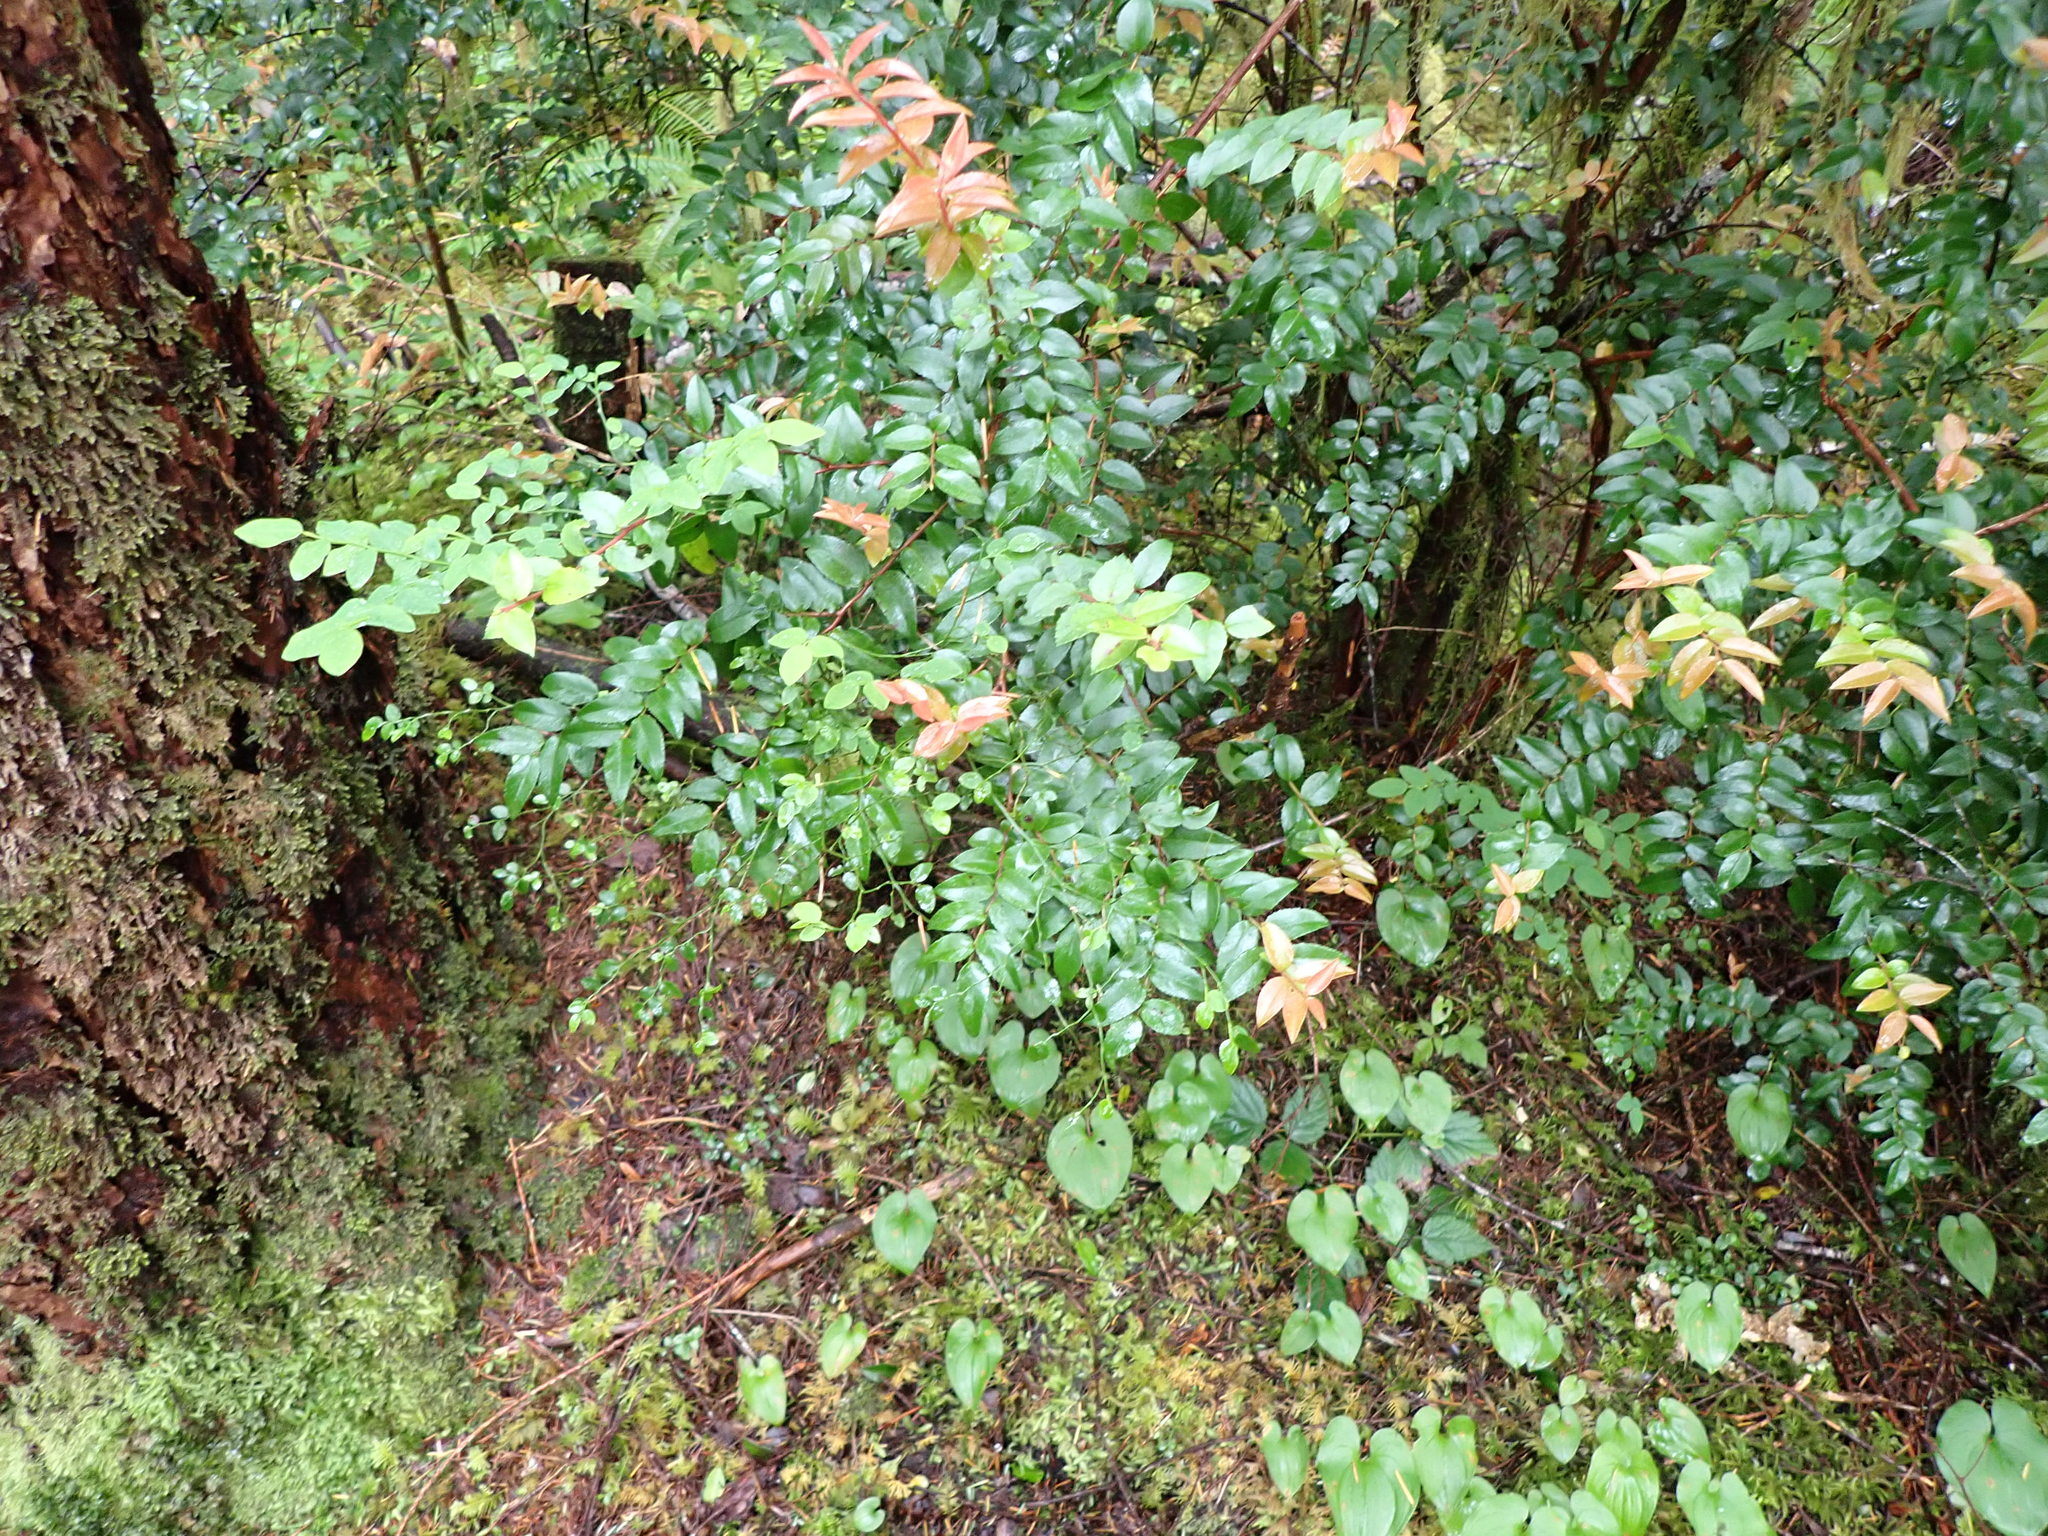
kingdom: Plantae
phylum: Tracheophyta
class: Magnoliopsida
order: Ericales
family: Ericaceae
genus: Vaccinium
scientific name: Vaccinium ovatum
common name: California-huckleberry
